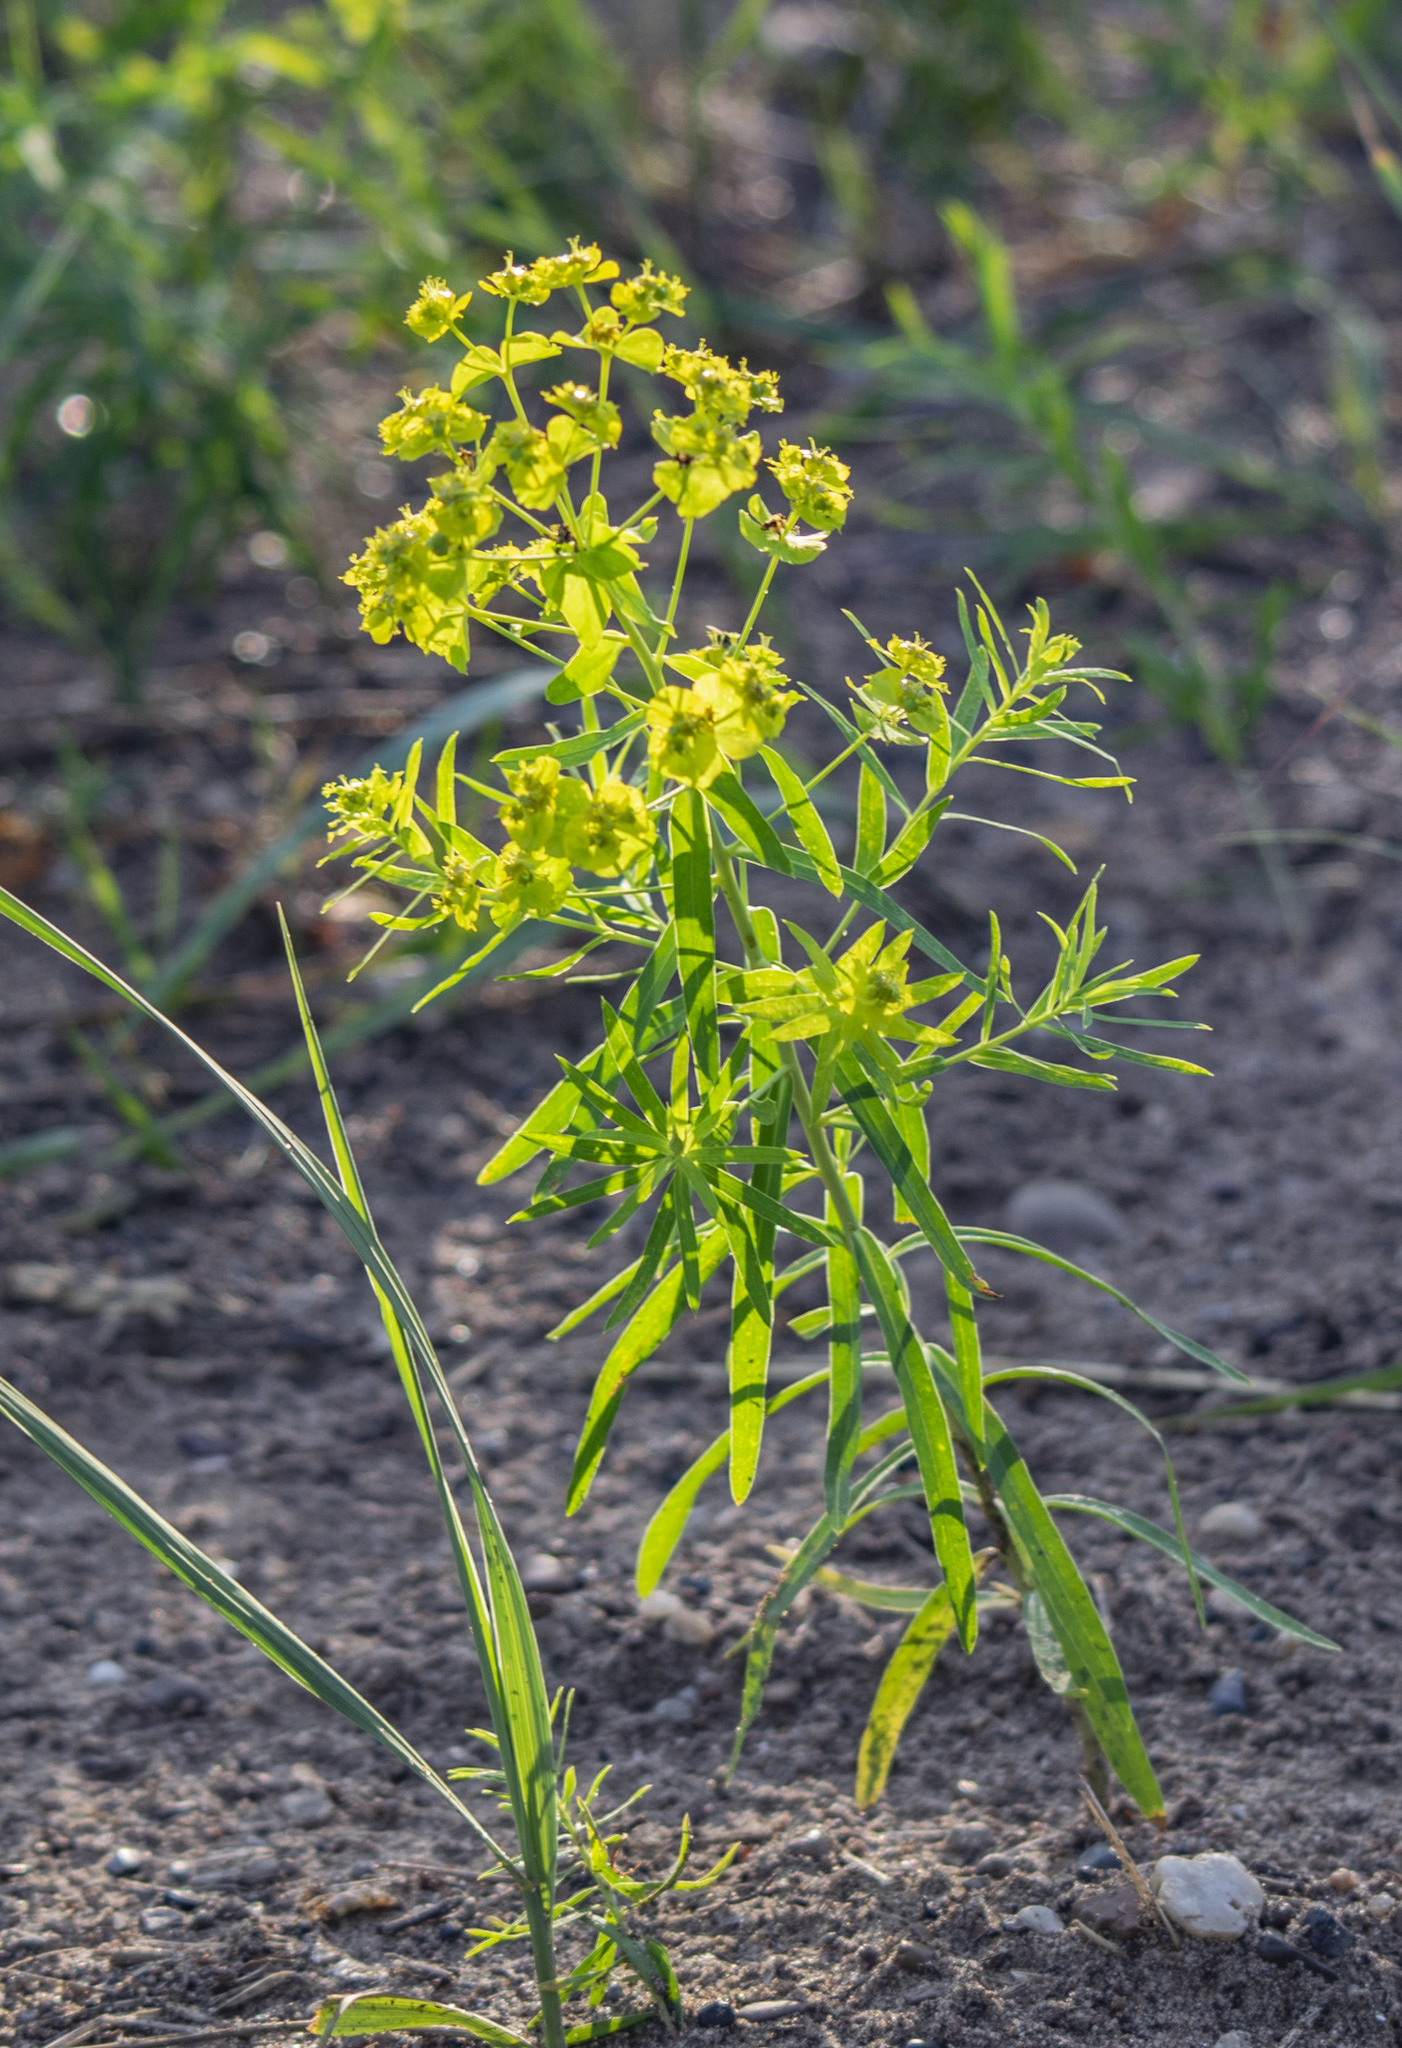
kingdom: Plantae
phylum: Tracheophyta
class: Magnoliopsida
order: Malpighiales
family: Euphorbiaceae
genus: Euphorbia
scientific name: Euphorbia virgata
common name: Leafy spurge
